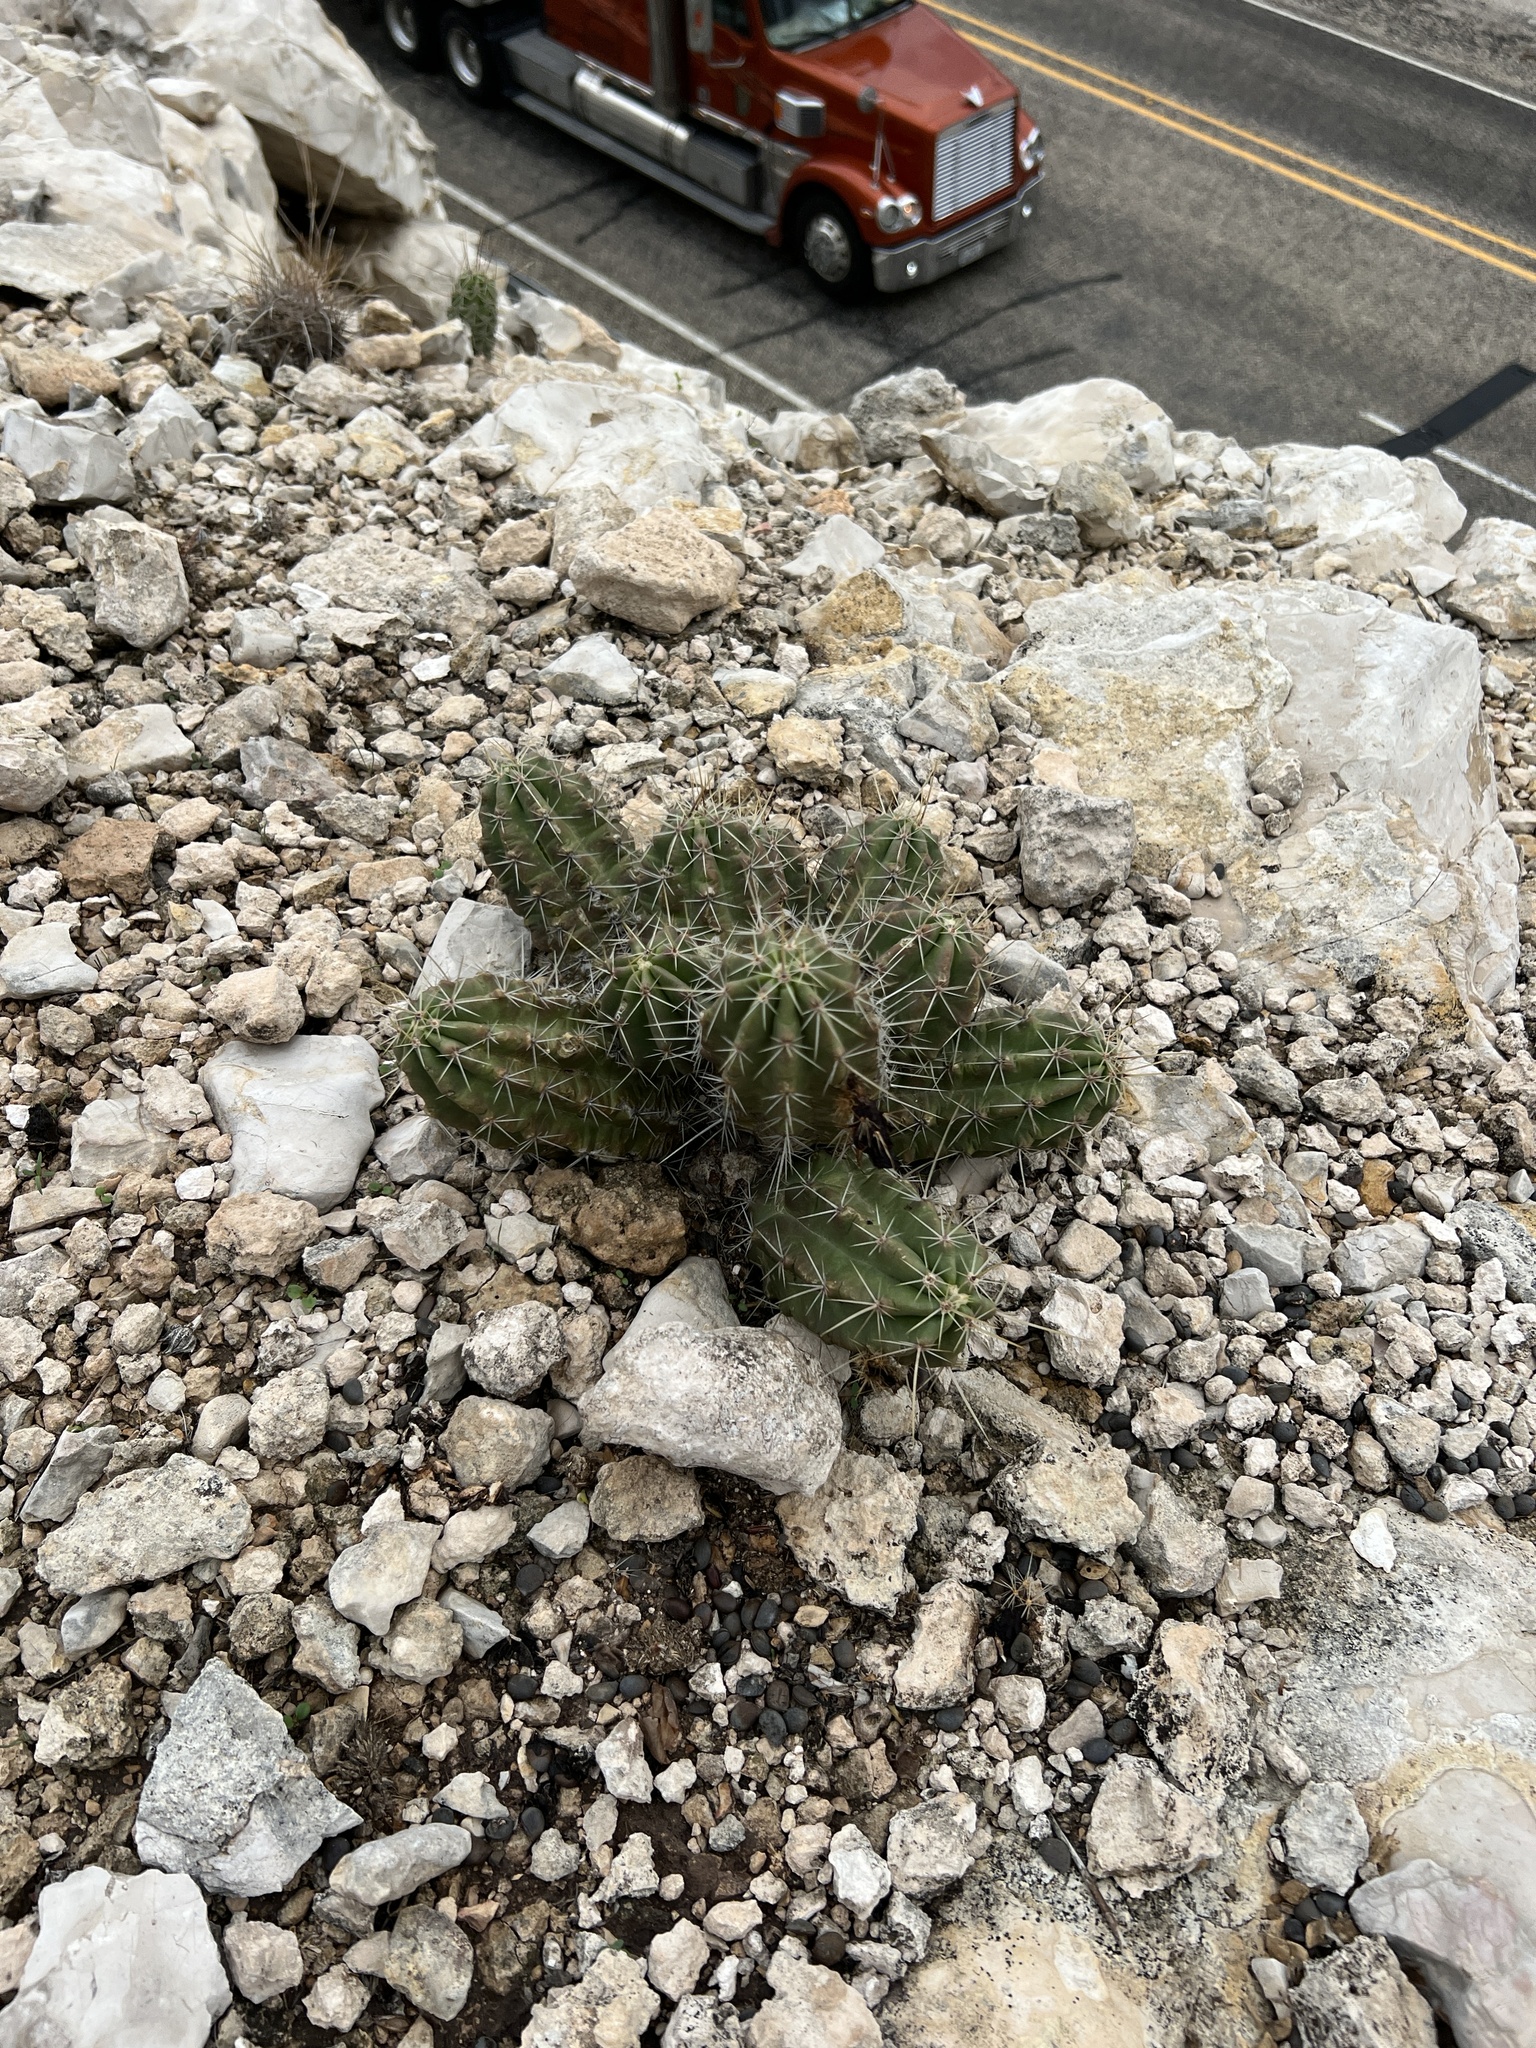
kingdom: Plantae
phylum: Tracheophyta
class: Magnoliopsida
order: Caryophyllales
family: Cactaceae
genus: Echinocereus
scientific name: Echinocereus enneacanthus
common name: Pitaya
